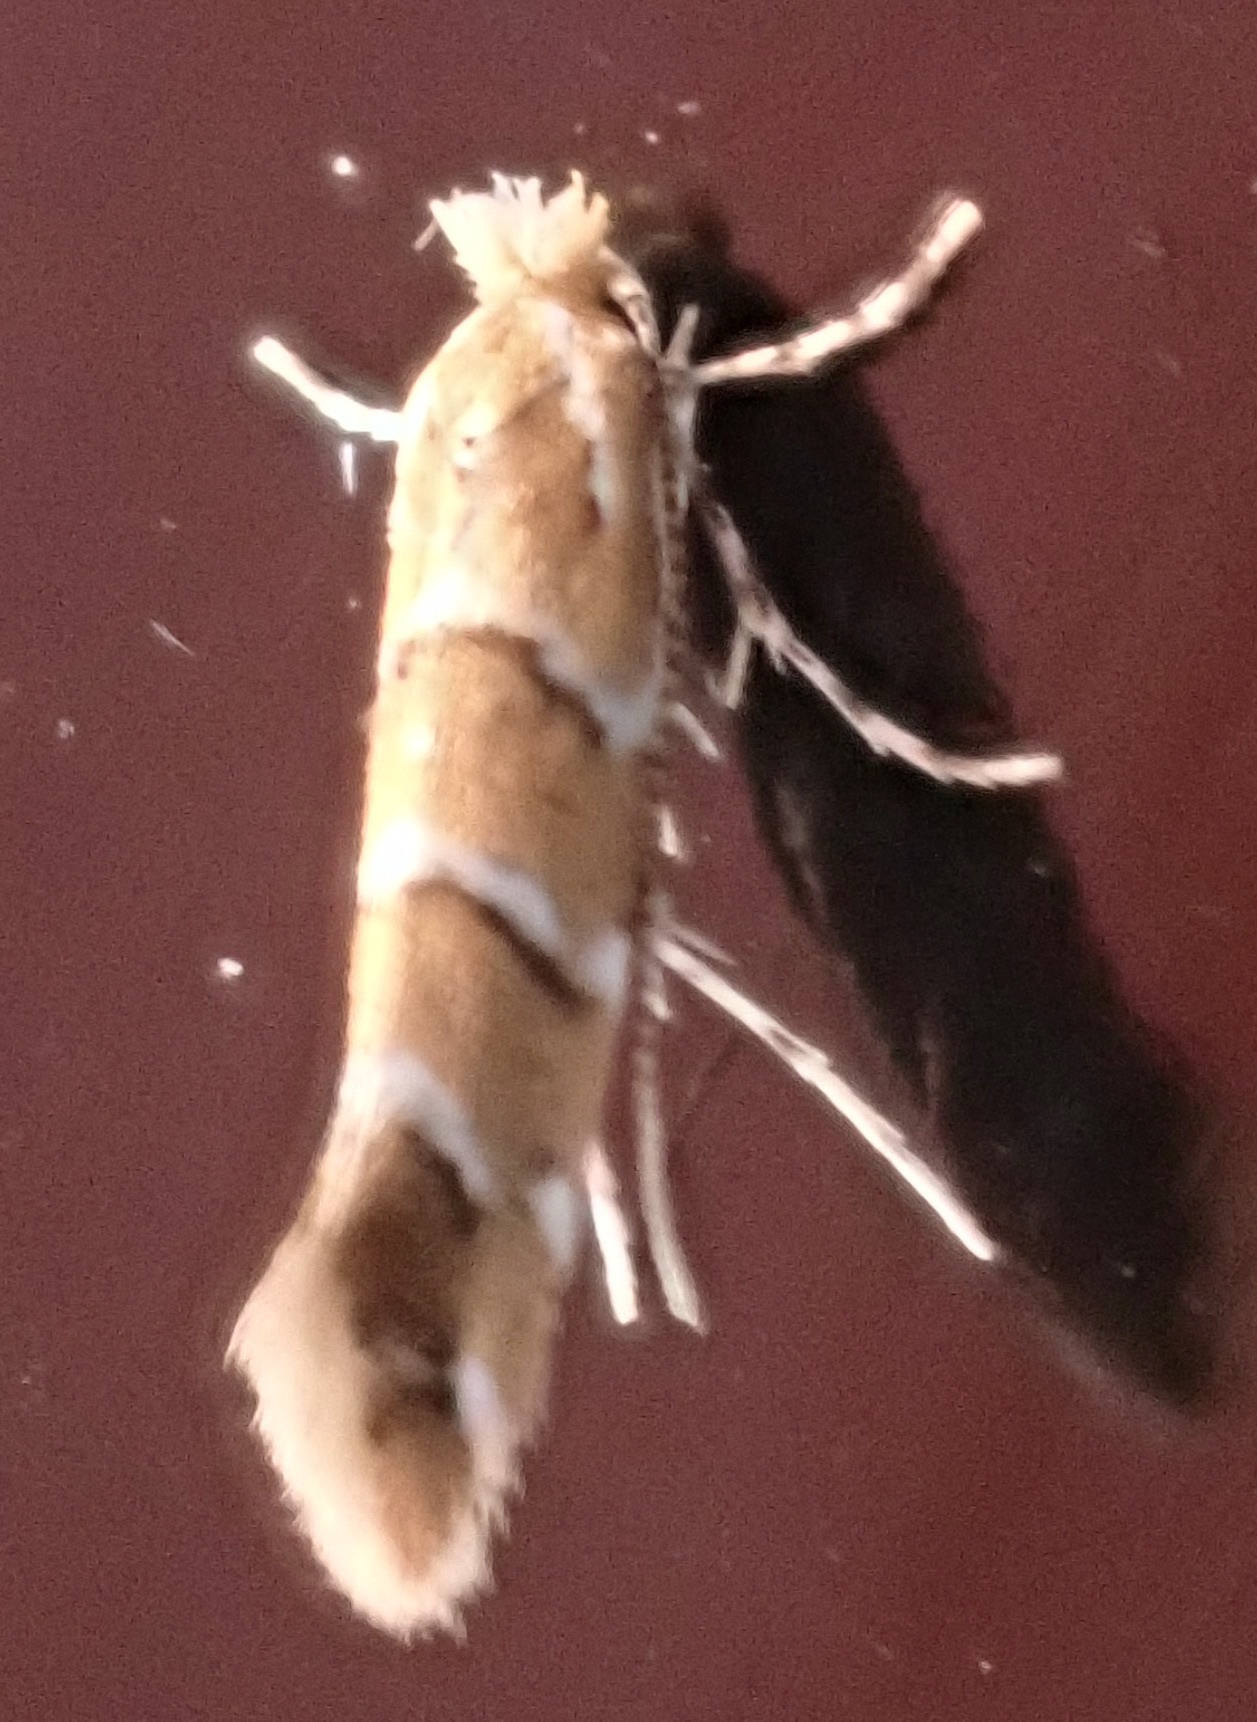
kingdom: Animalia
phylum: Arthropoda
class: Insecta
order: Lepidoptera
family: Gracillariidae
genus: Cameraria
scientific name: Cameraria ohridella
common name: Horse-chestnut leaf-miner
